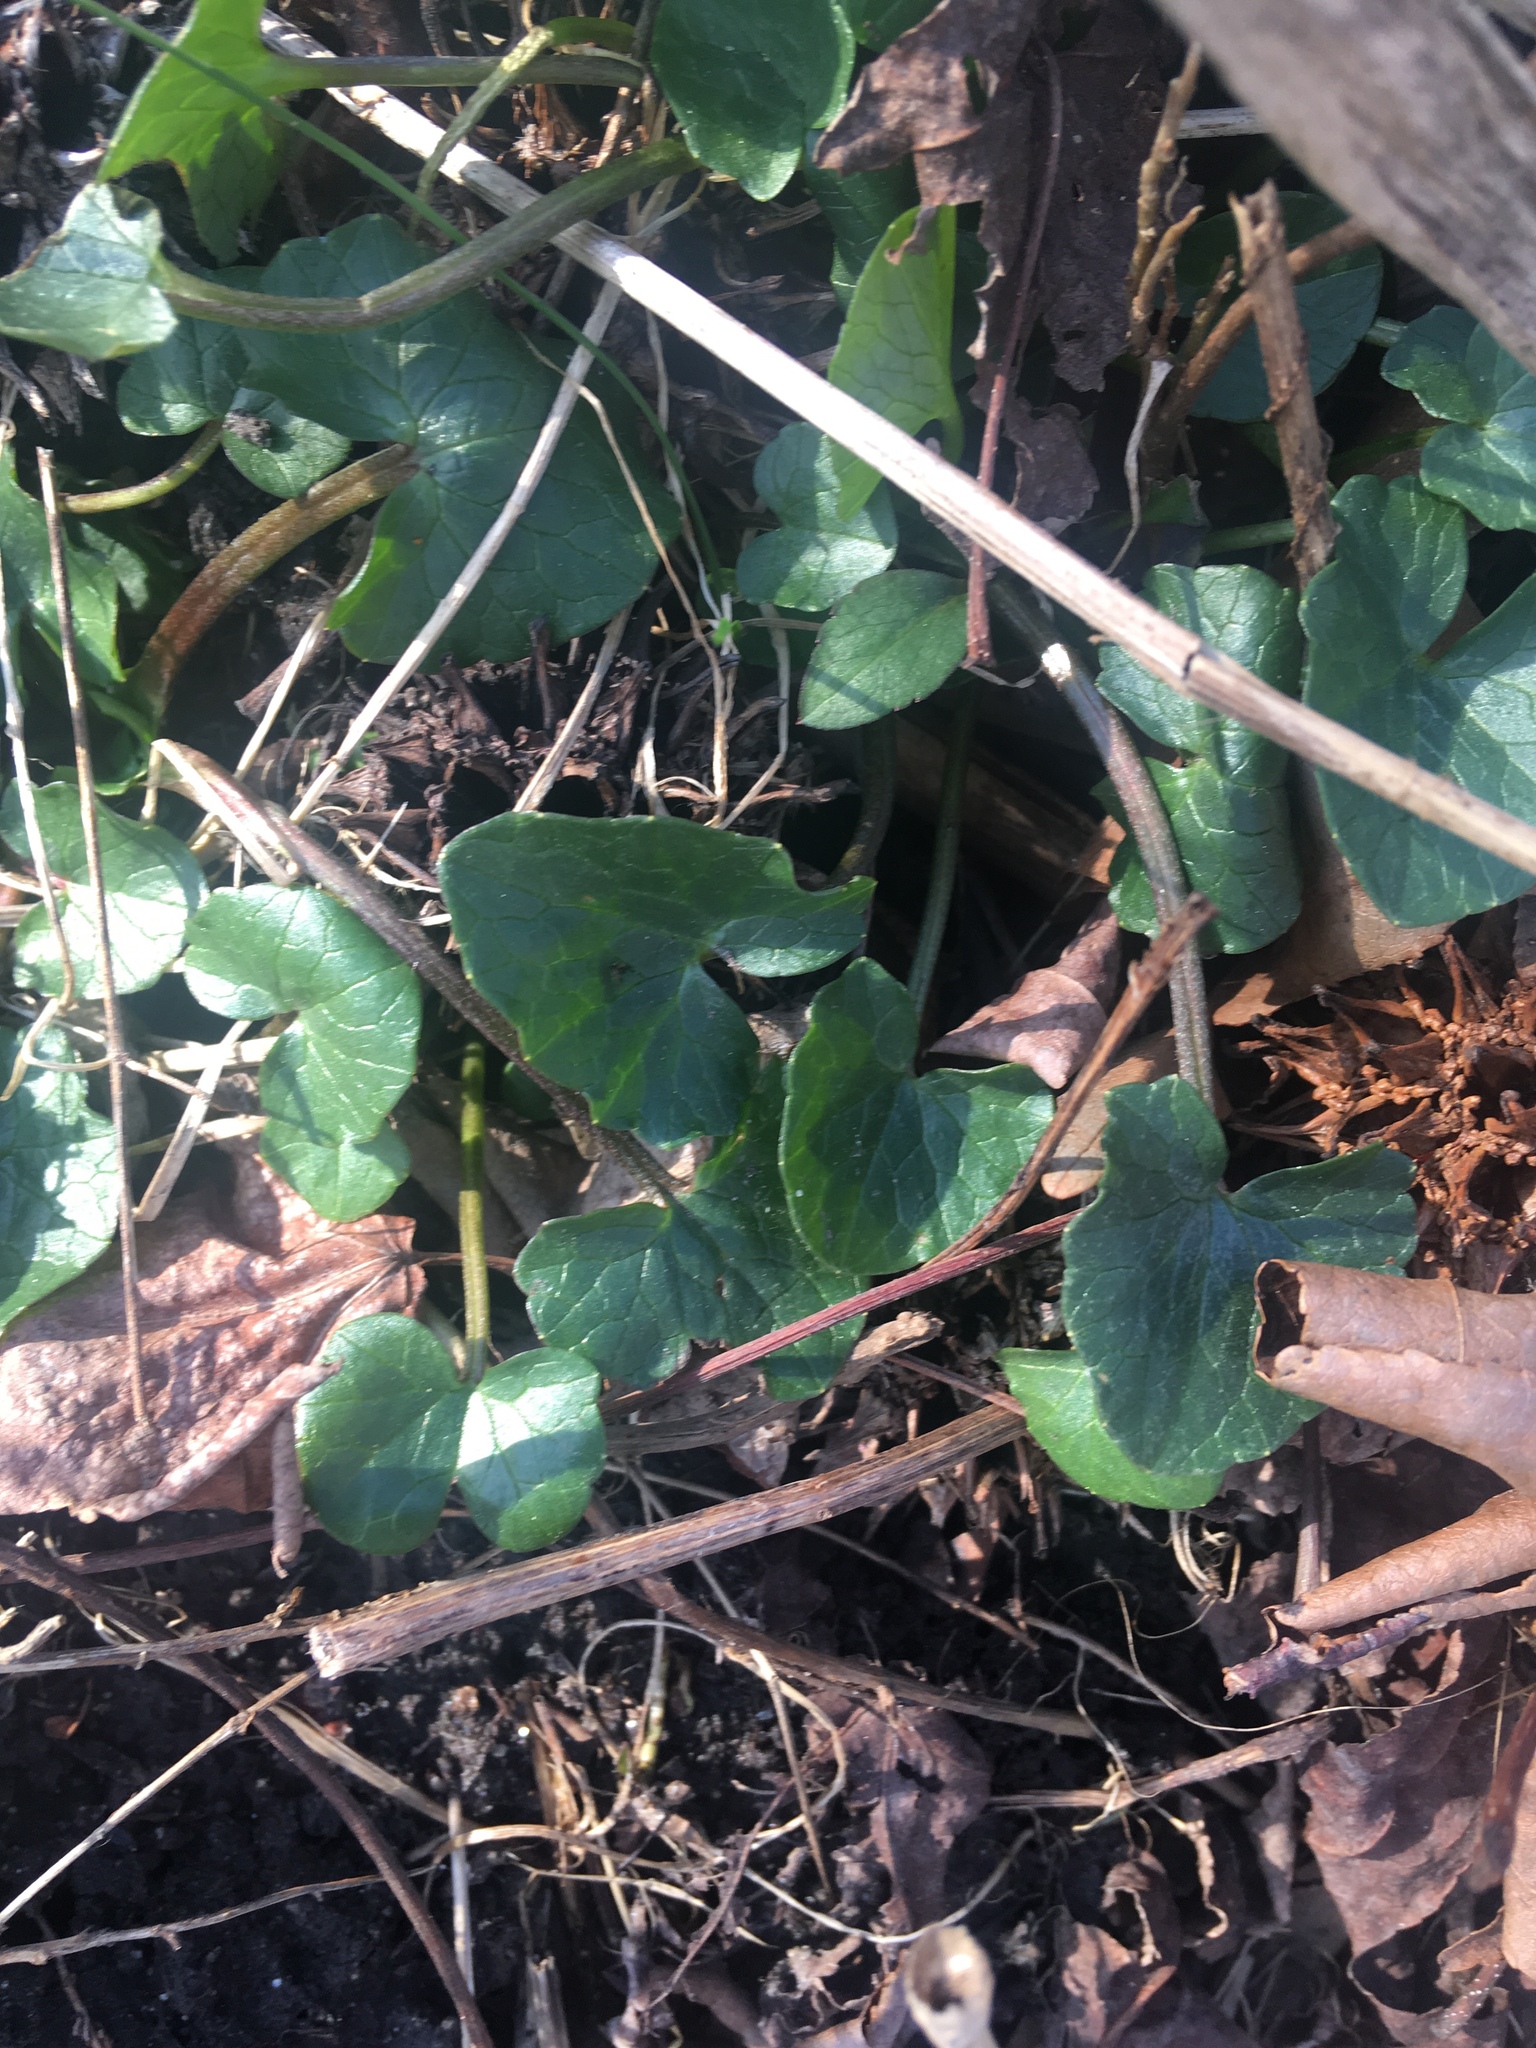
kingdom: Plantae
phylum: Tracheophyta
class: Magnoliopsida
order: Ranunculales
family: Ranunculaceae
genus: Ficaria
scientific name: Ficaria verna
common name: Lesser celandine
